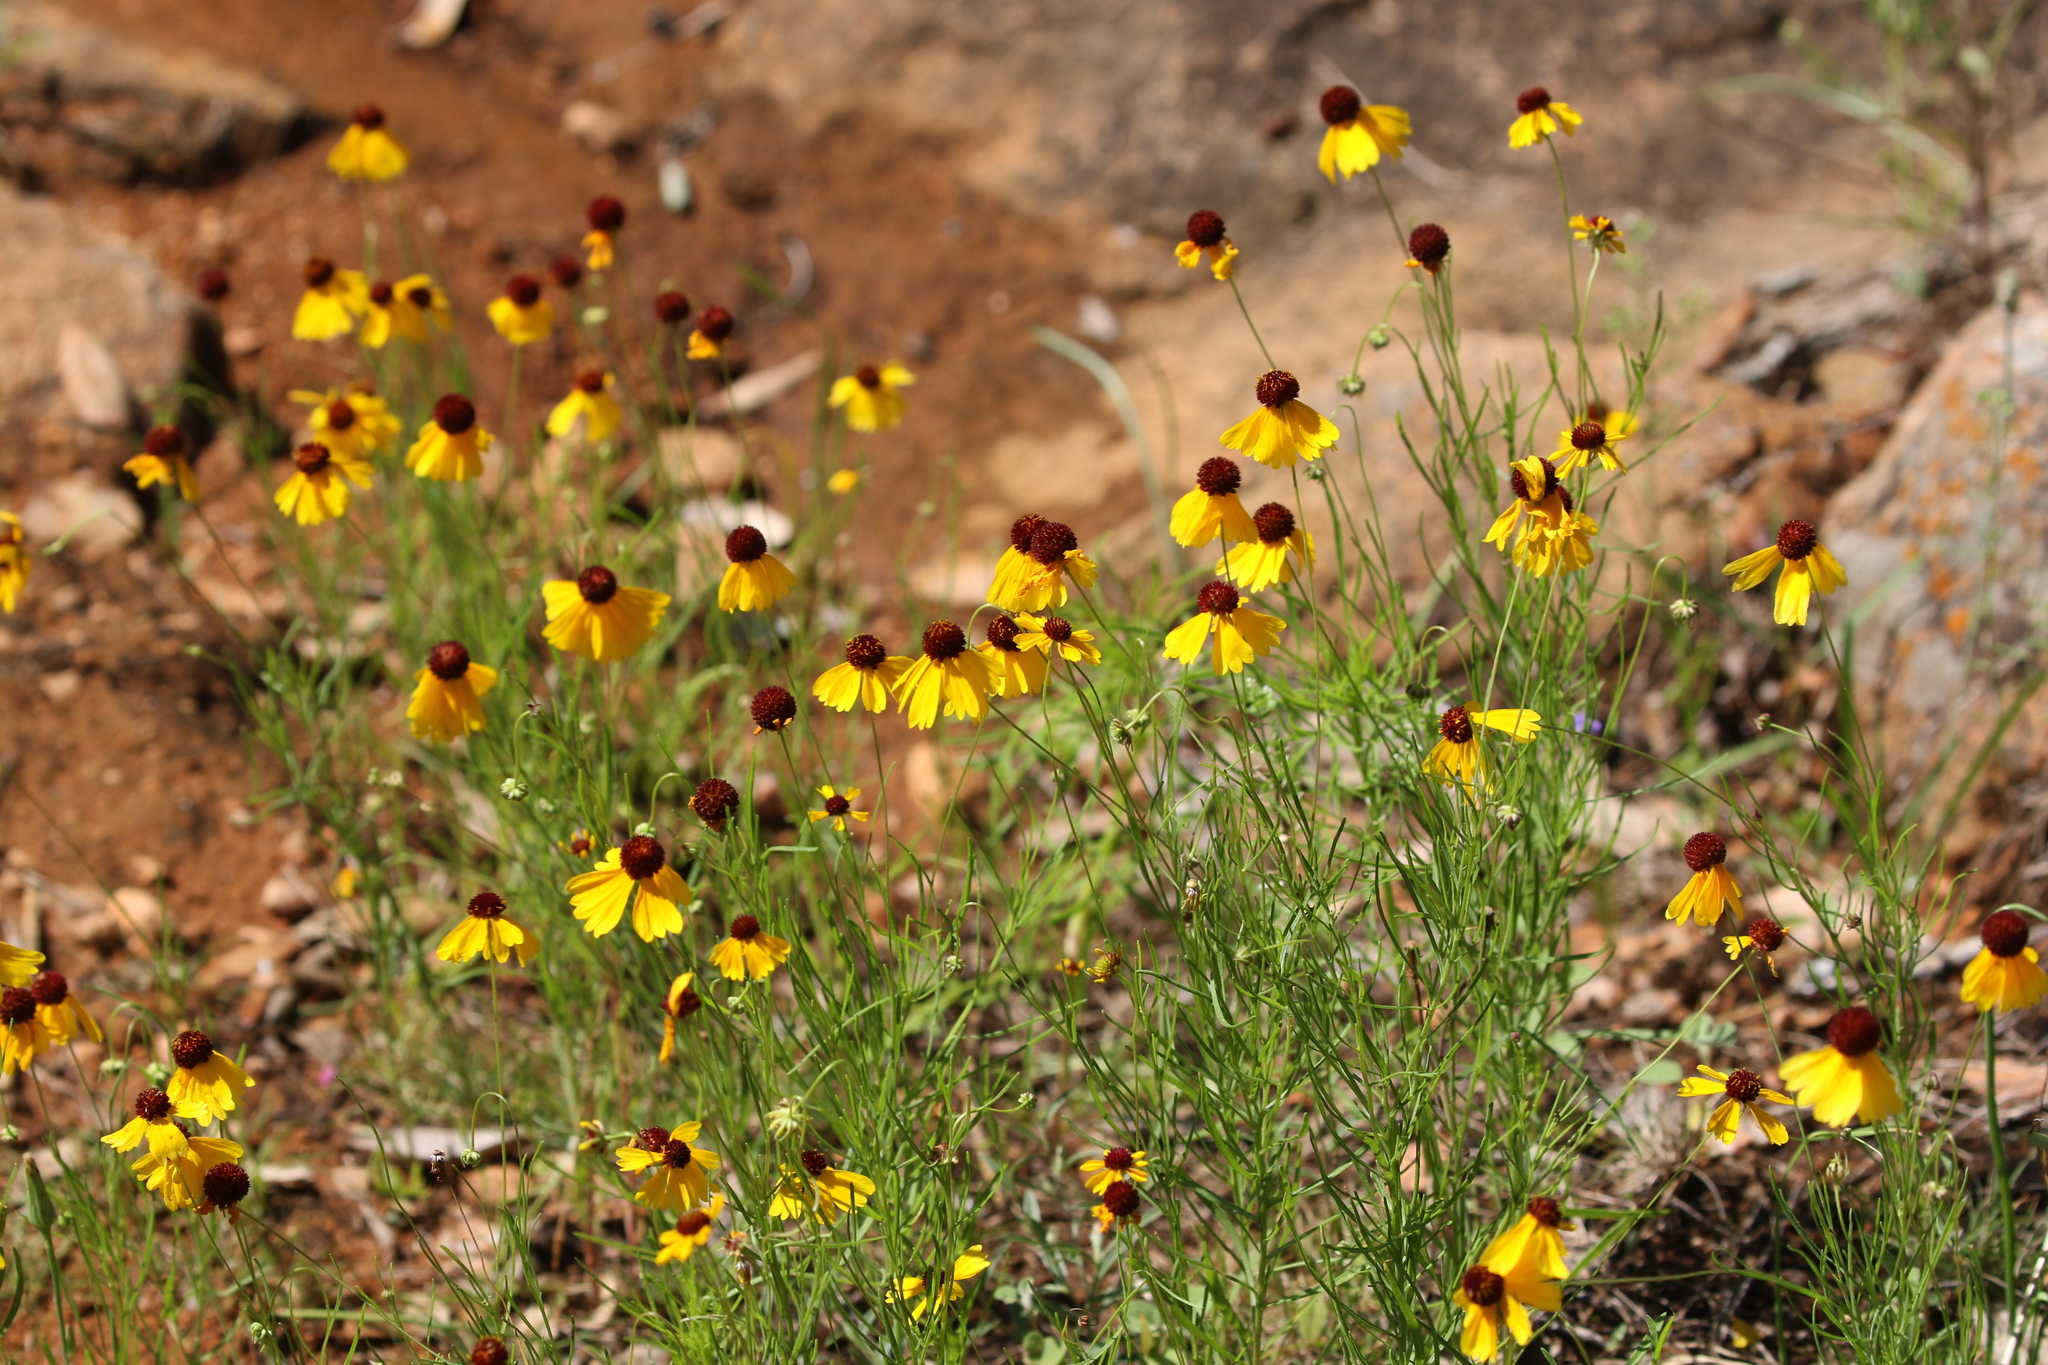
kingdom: Plantae
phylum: Tracheophyta
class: Magnoliopsida
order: Asterales
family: Asteraceae
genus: Helenium
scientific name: Helenium amarum
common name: Bitter sneezeweed
